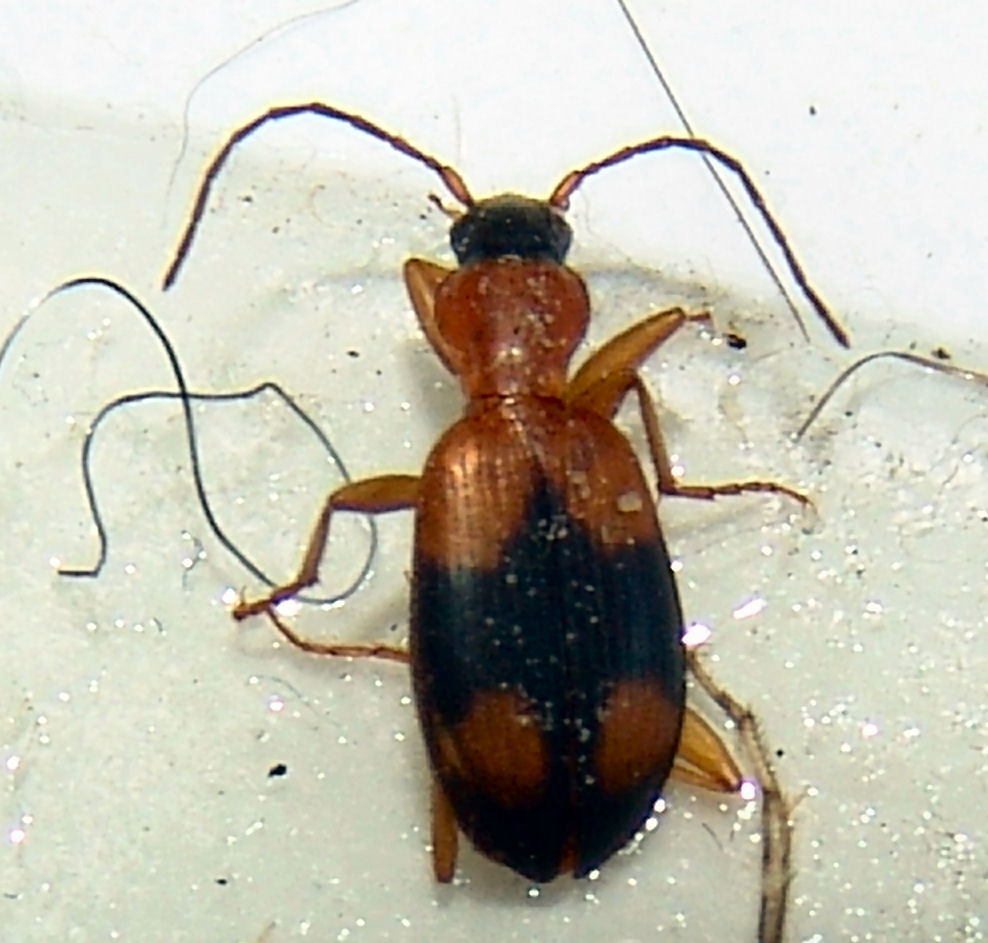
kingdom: Animalia
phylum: Arthropoda
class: Insecta
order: Coleoptera
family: Carabidae
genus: Agonum
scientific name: Agonum quadrimaculatum
